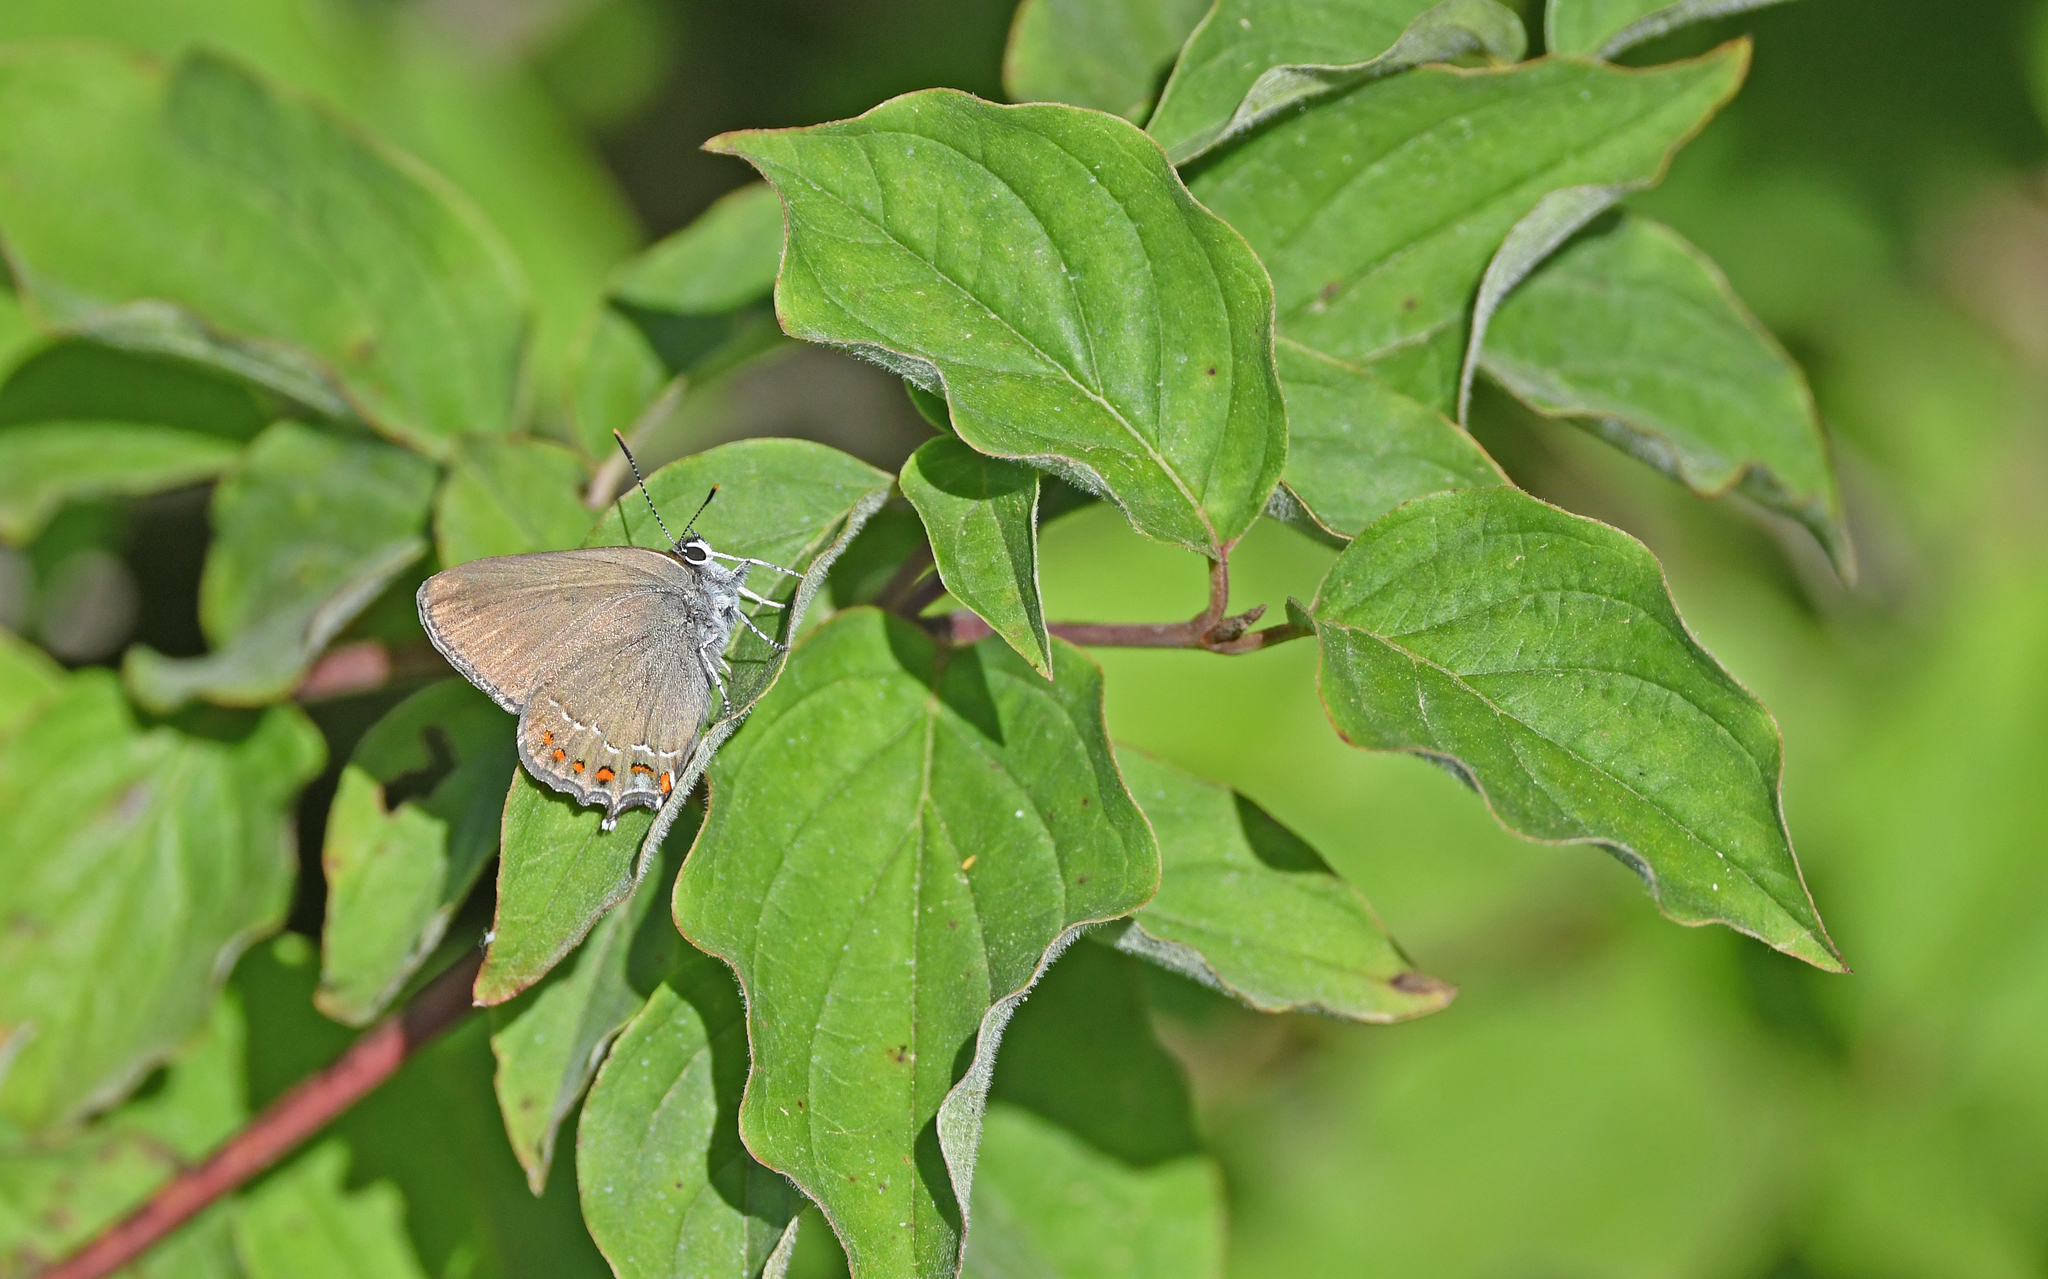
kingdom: Animalia
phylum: Arthropoda
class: Insecta
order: Lepidoptera
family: Lycaenidae
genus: Fixsenia
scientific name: Fixsenia esculi
